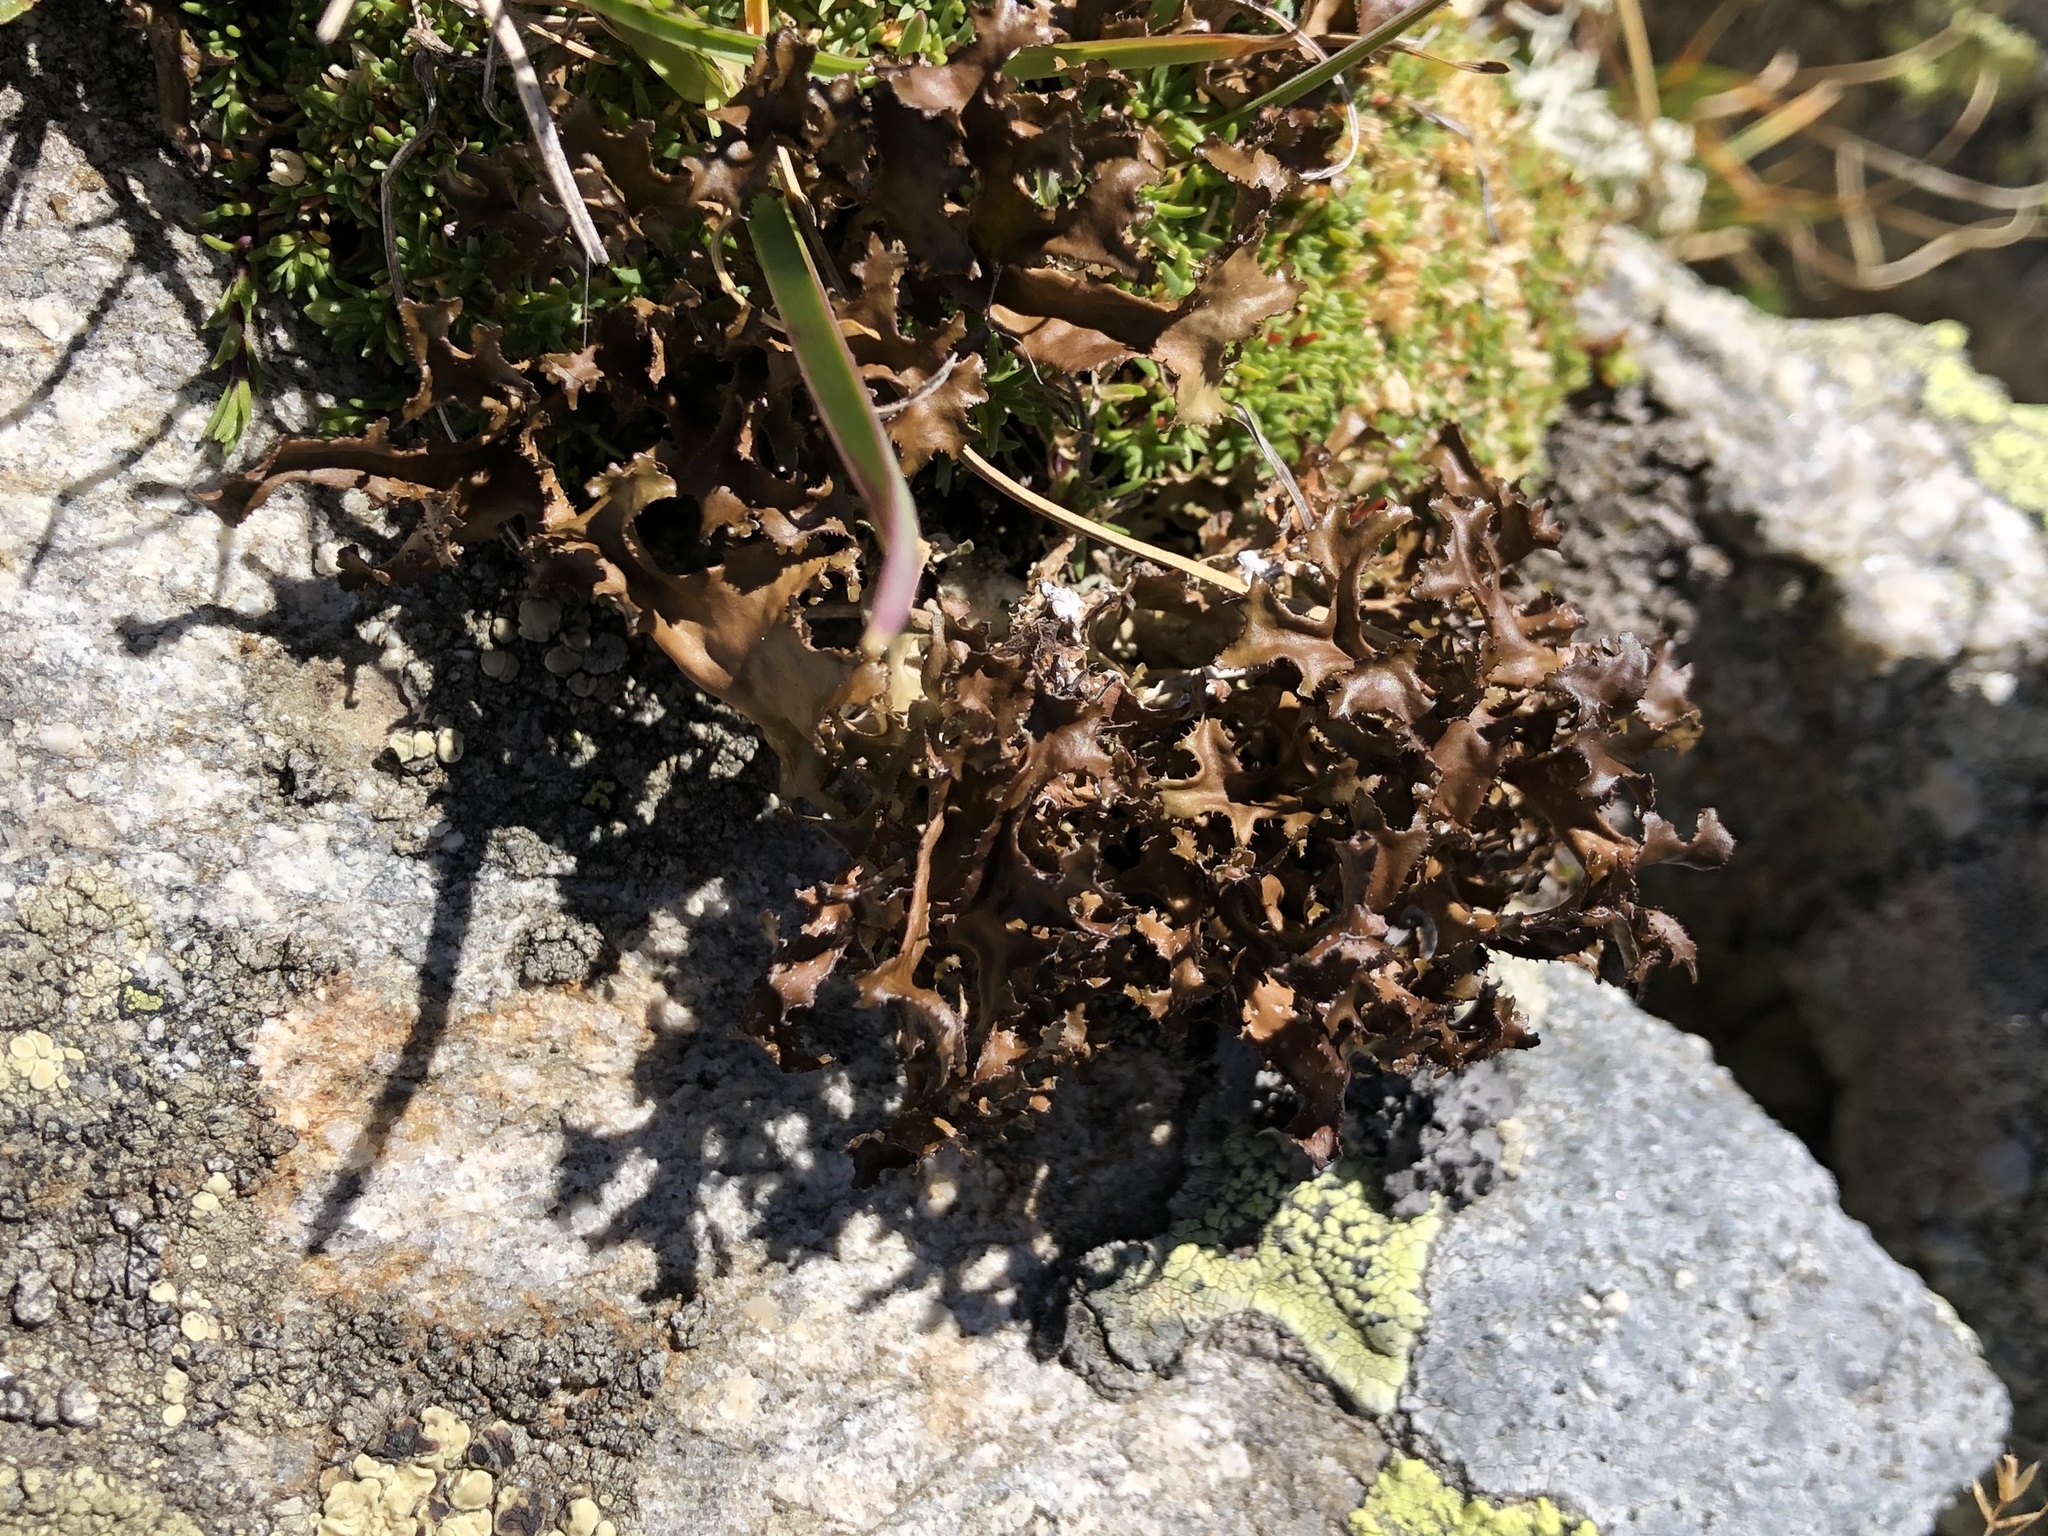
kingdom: Fungi
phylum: Ascomycota
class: Lecanoromycetes
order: Lecanorales
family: Parmeliaceae
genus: Cetraria
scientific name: Cetraria islandica
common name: Iceland lichen
